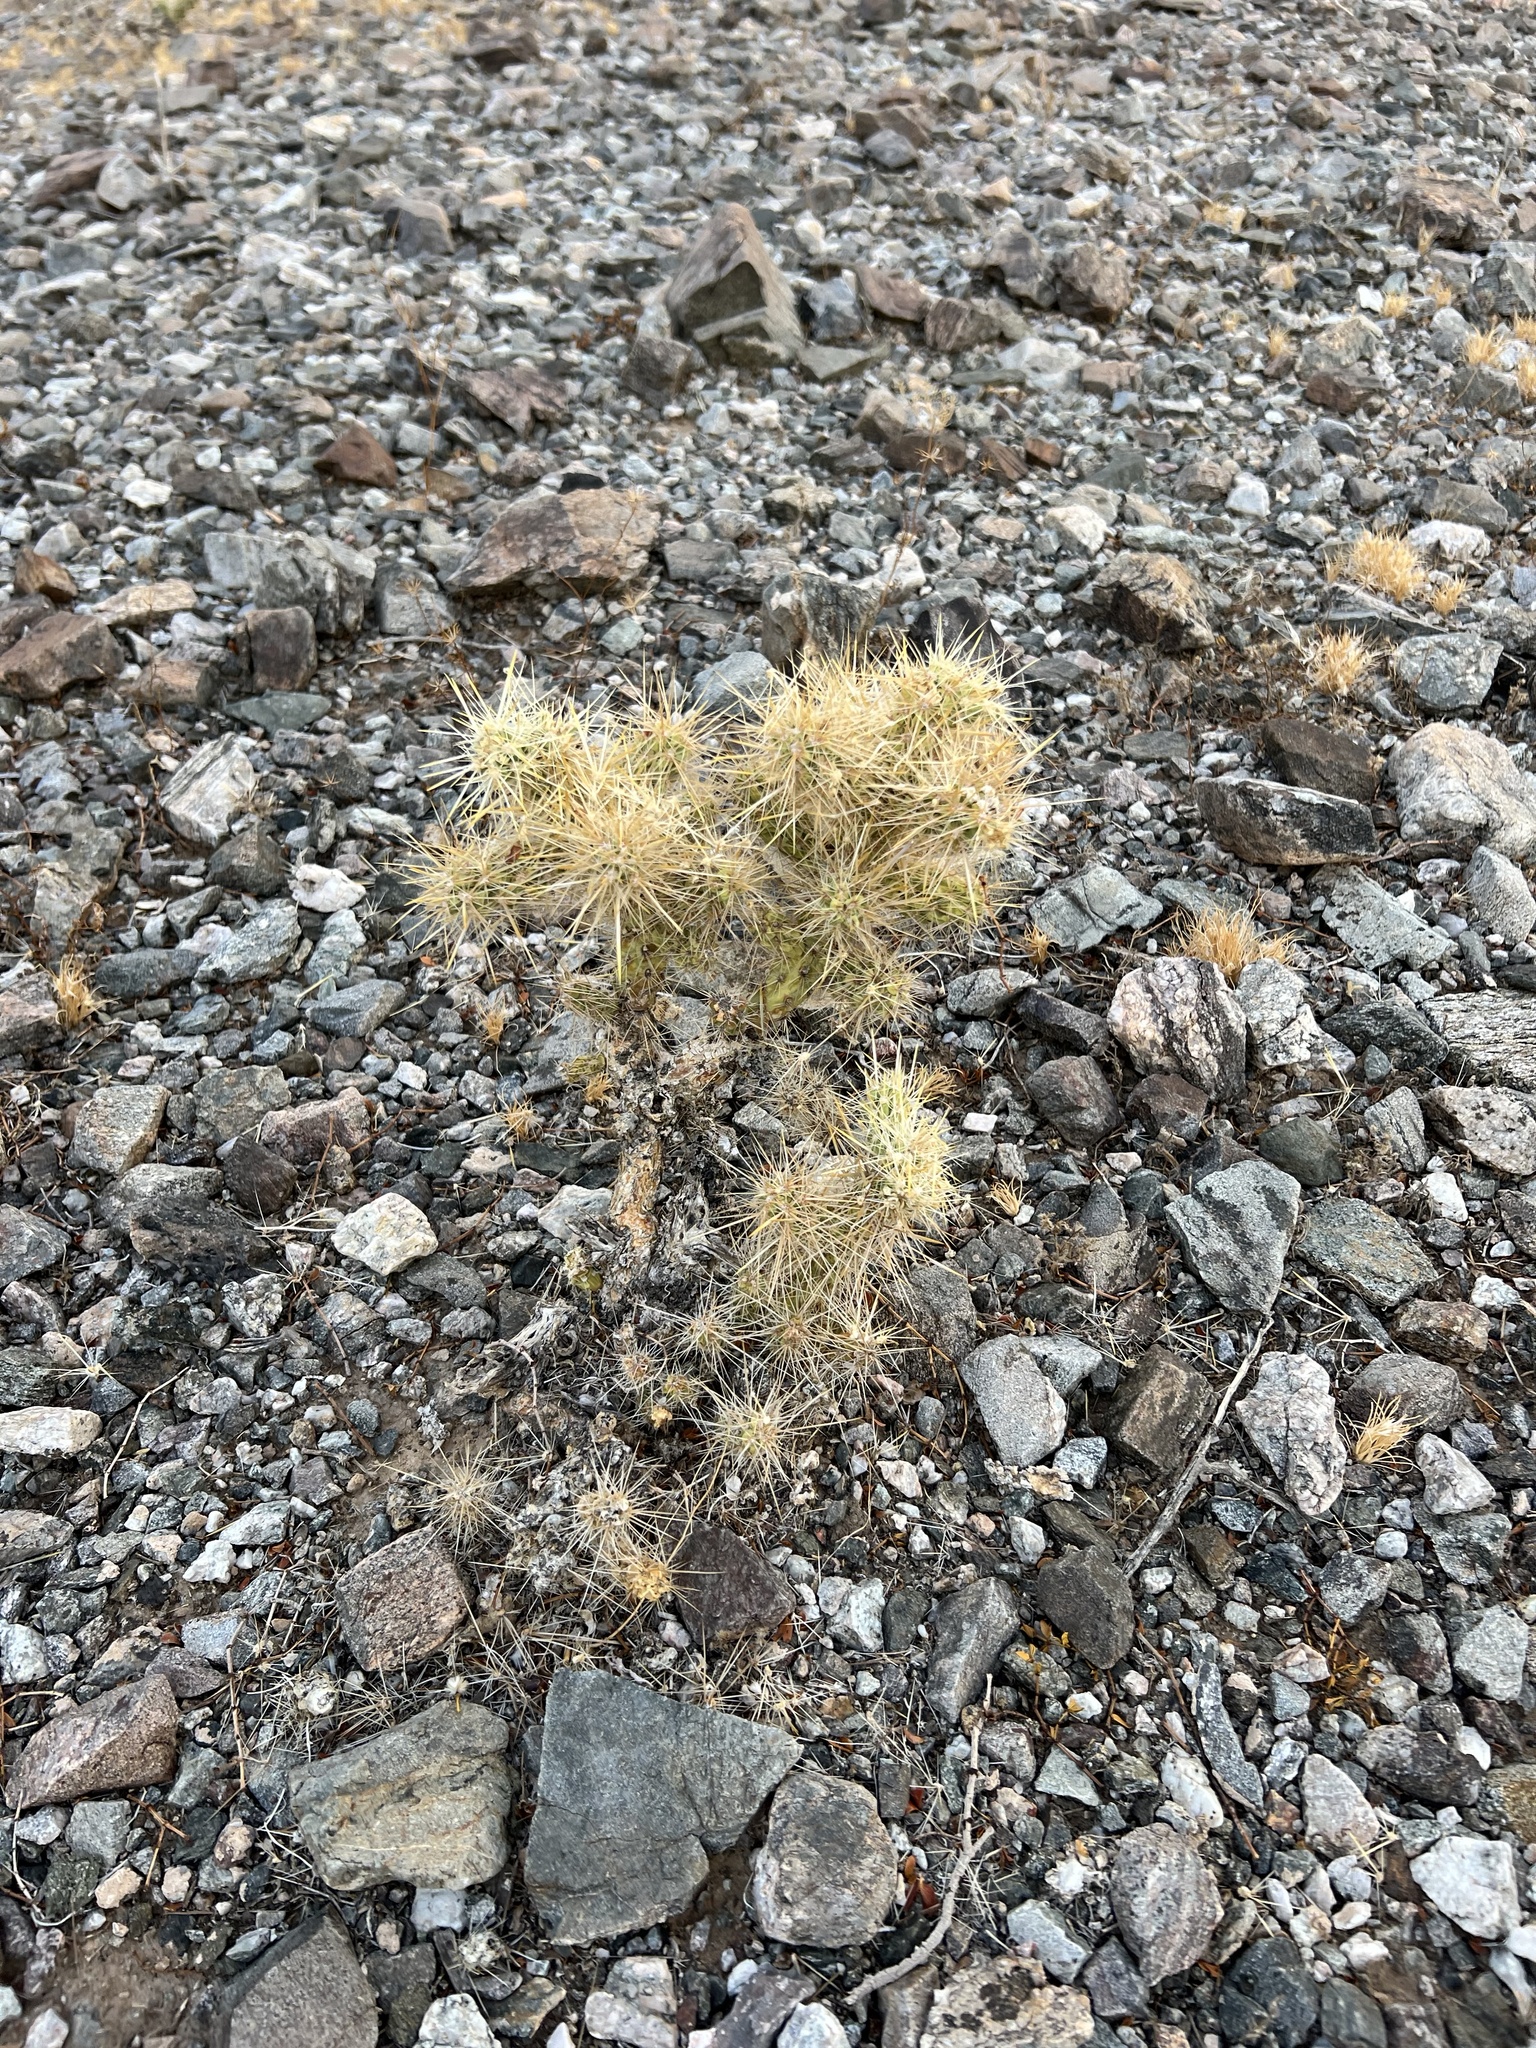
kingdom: Plantae
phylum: Tracheophyta
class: Magnoliopsida
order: Caryophyllales
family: Cactaceae
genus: Cylindropuntia
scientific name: Cylindropuntia echinocarpa
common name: Ground cholla
